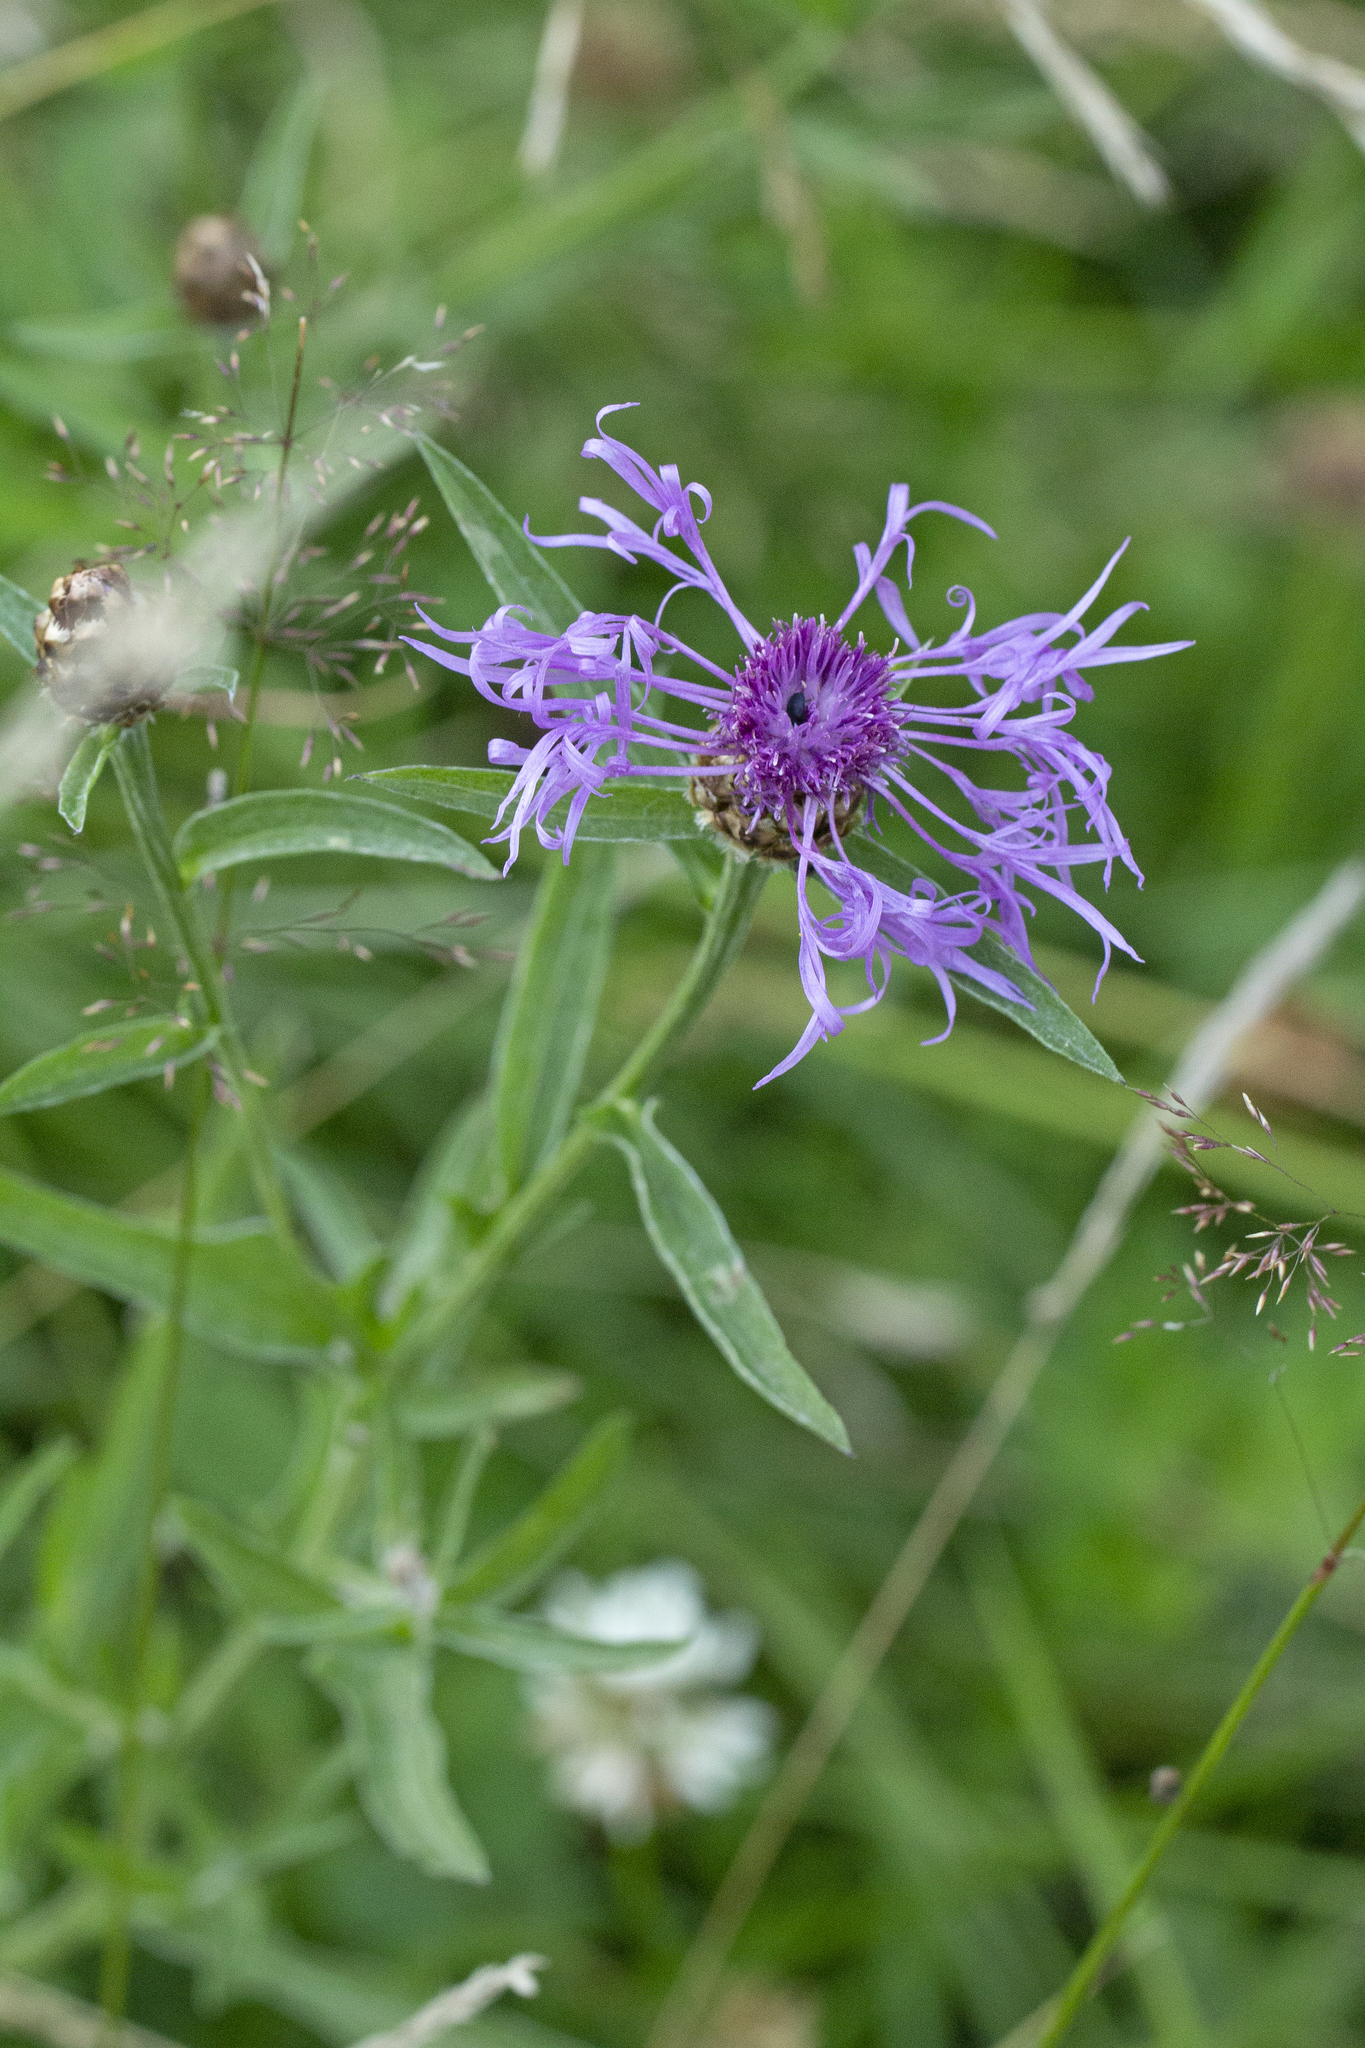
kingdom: Plantae
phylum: Tracheophyta
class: Magnoliopsida
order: Asterales
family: Asteraceae
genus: Centaurea
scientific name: Centaurea jacea
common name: Brown knapweed
